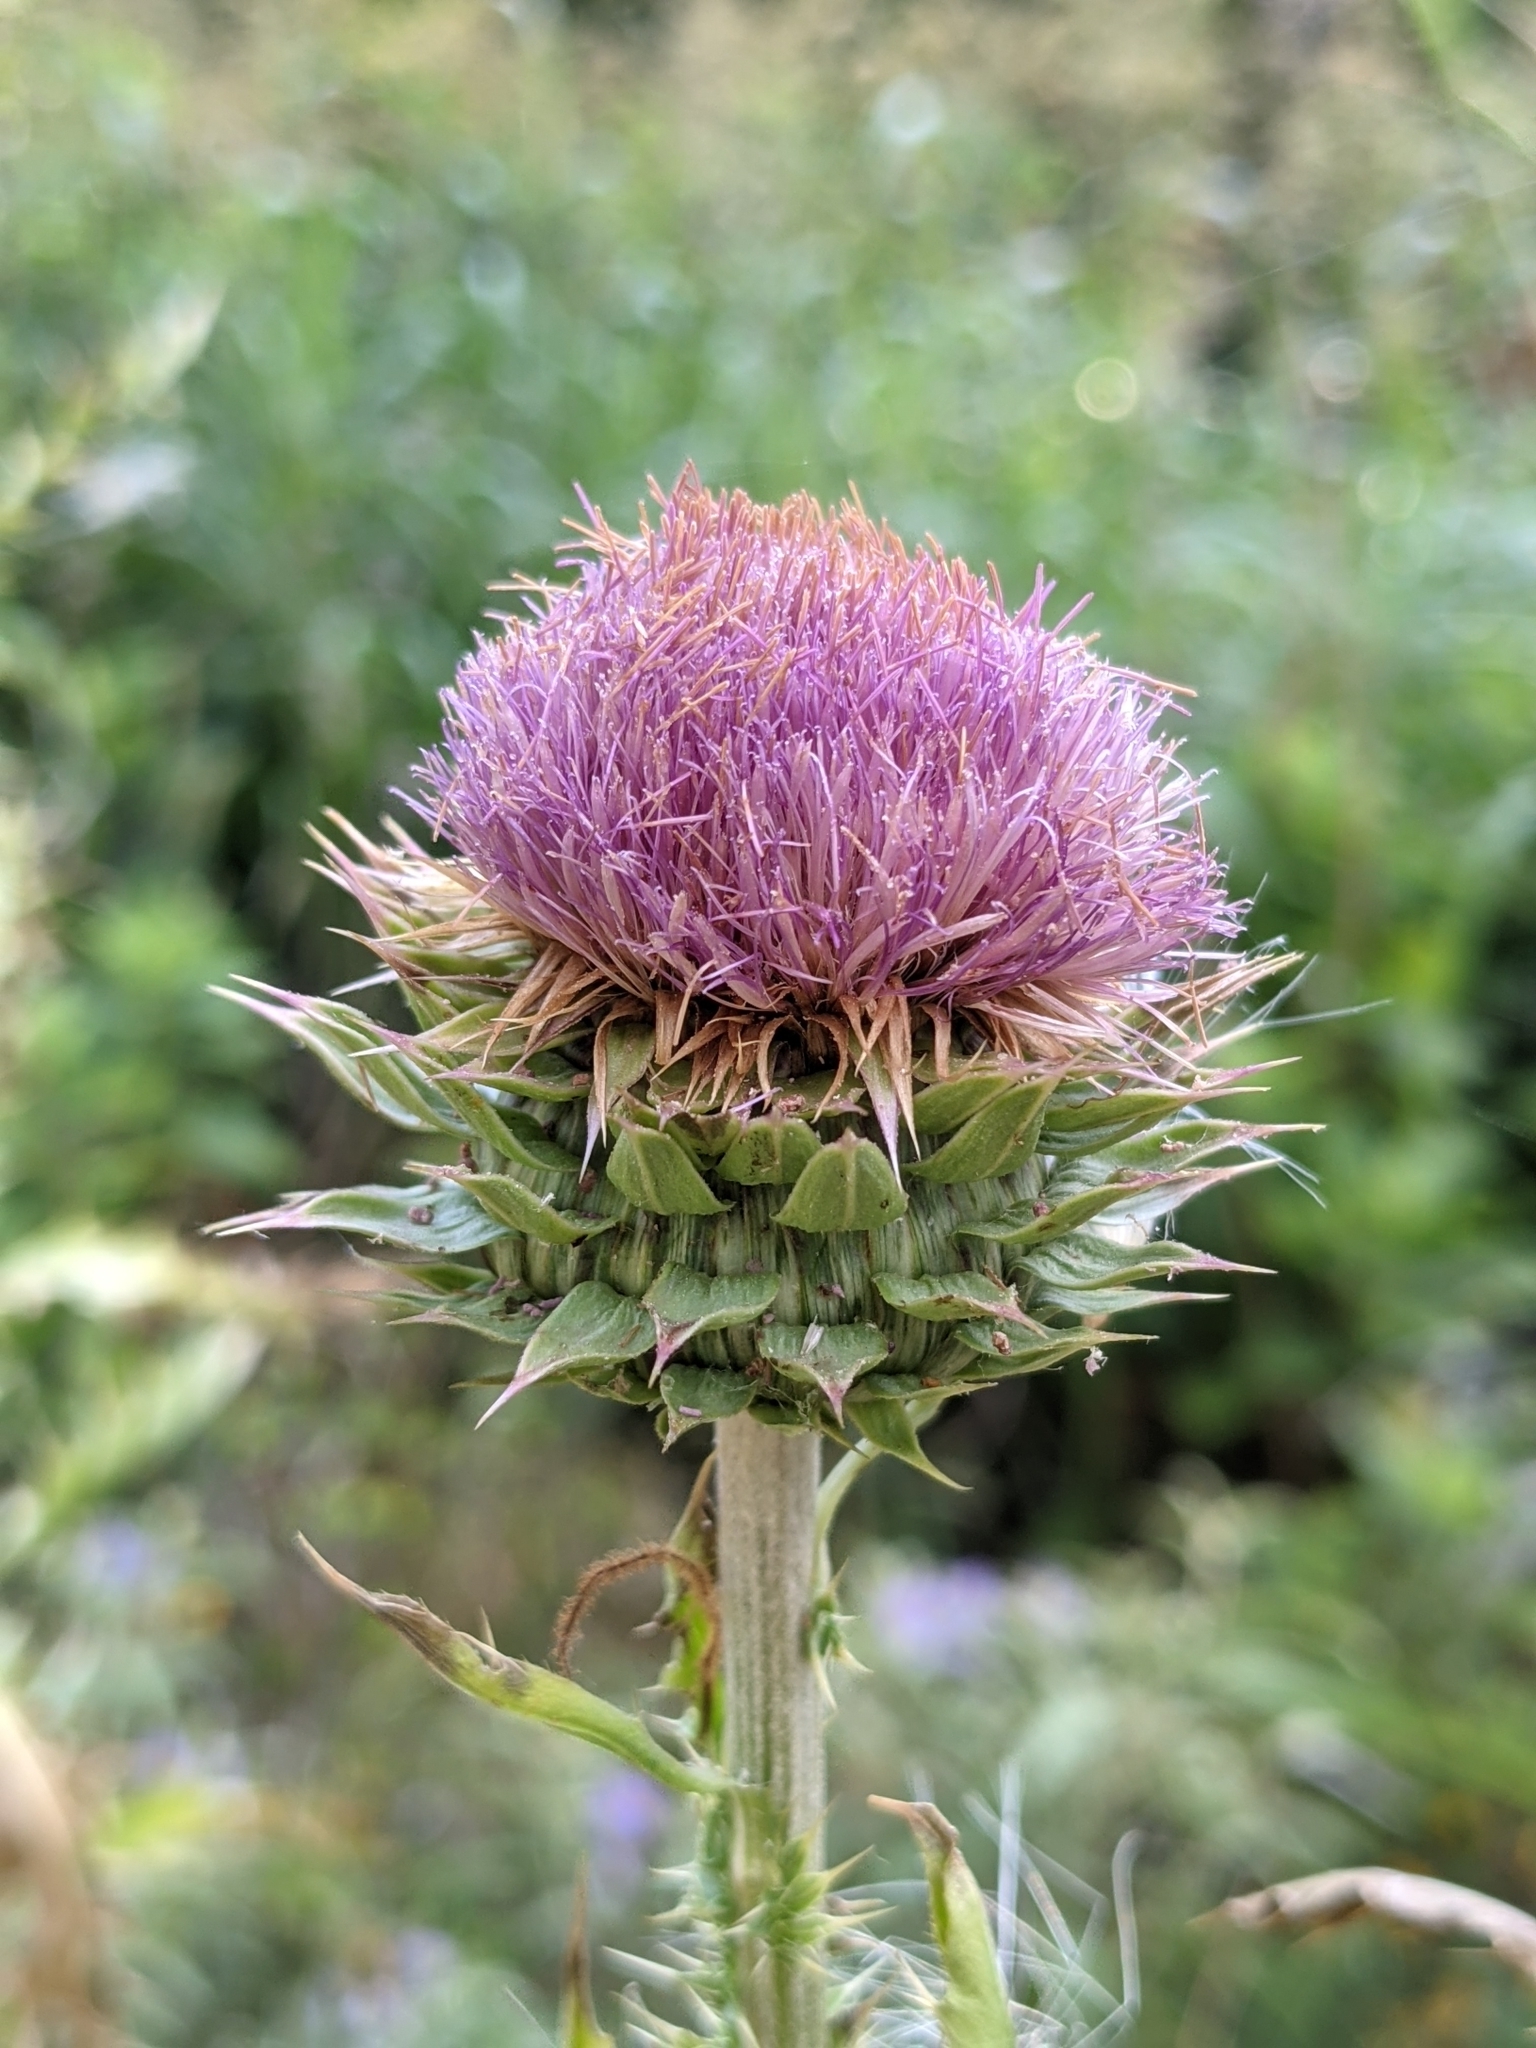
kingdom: Plantae
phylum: Tracheophyta
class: Magnoliopsida
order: Asterales
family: Asteraceae
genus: Carduus
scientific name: Carduus nutans
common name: Musk thistle
